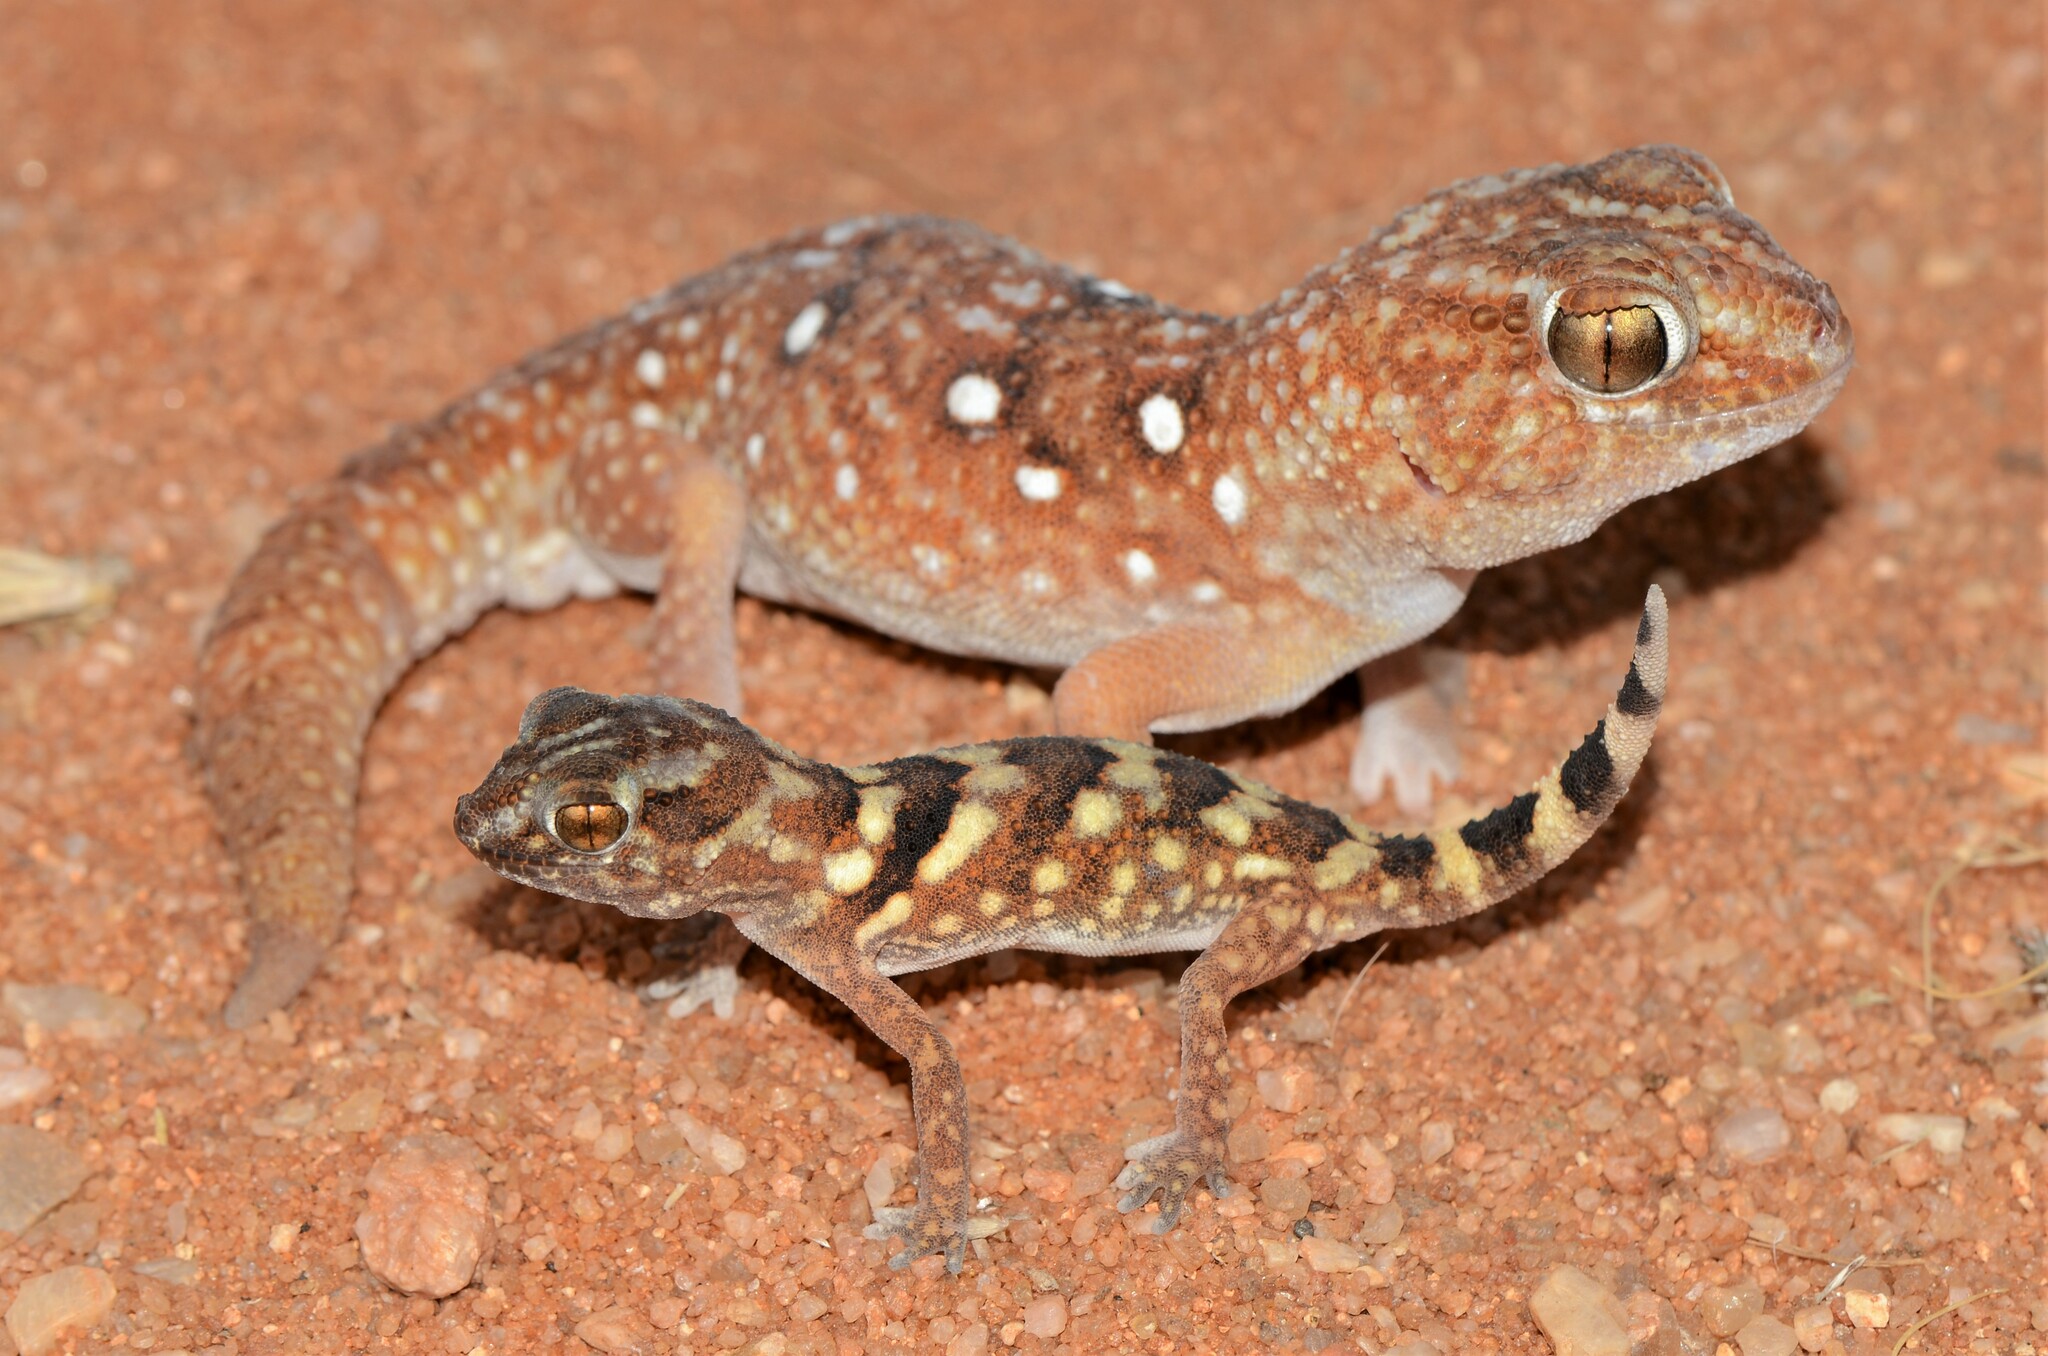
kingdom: Animalia
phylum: Chordata
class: Squamata
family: Gekkonidae
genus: Chondrodactylus
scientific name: Chondrodactylus angulifer
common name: Common giant ground gecko
